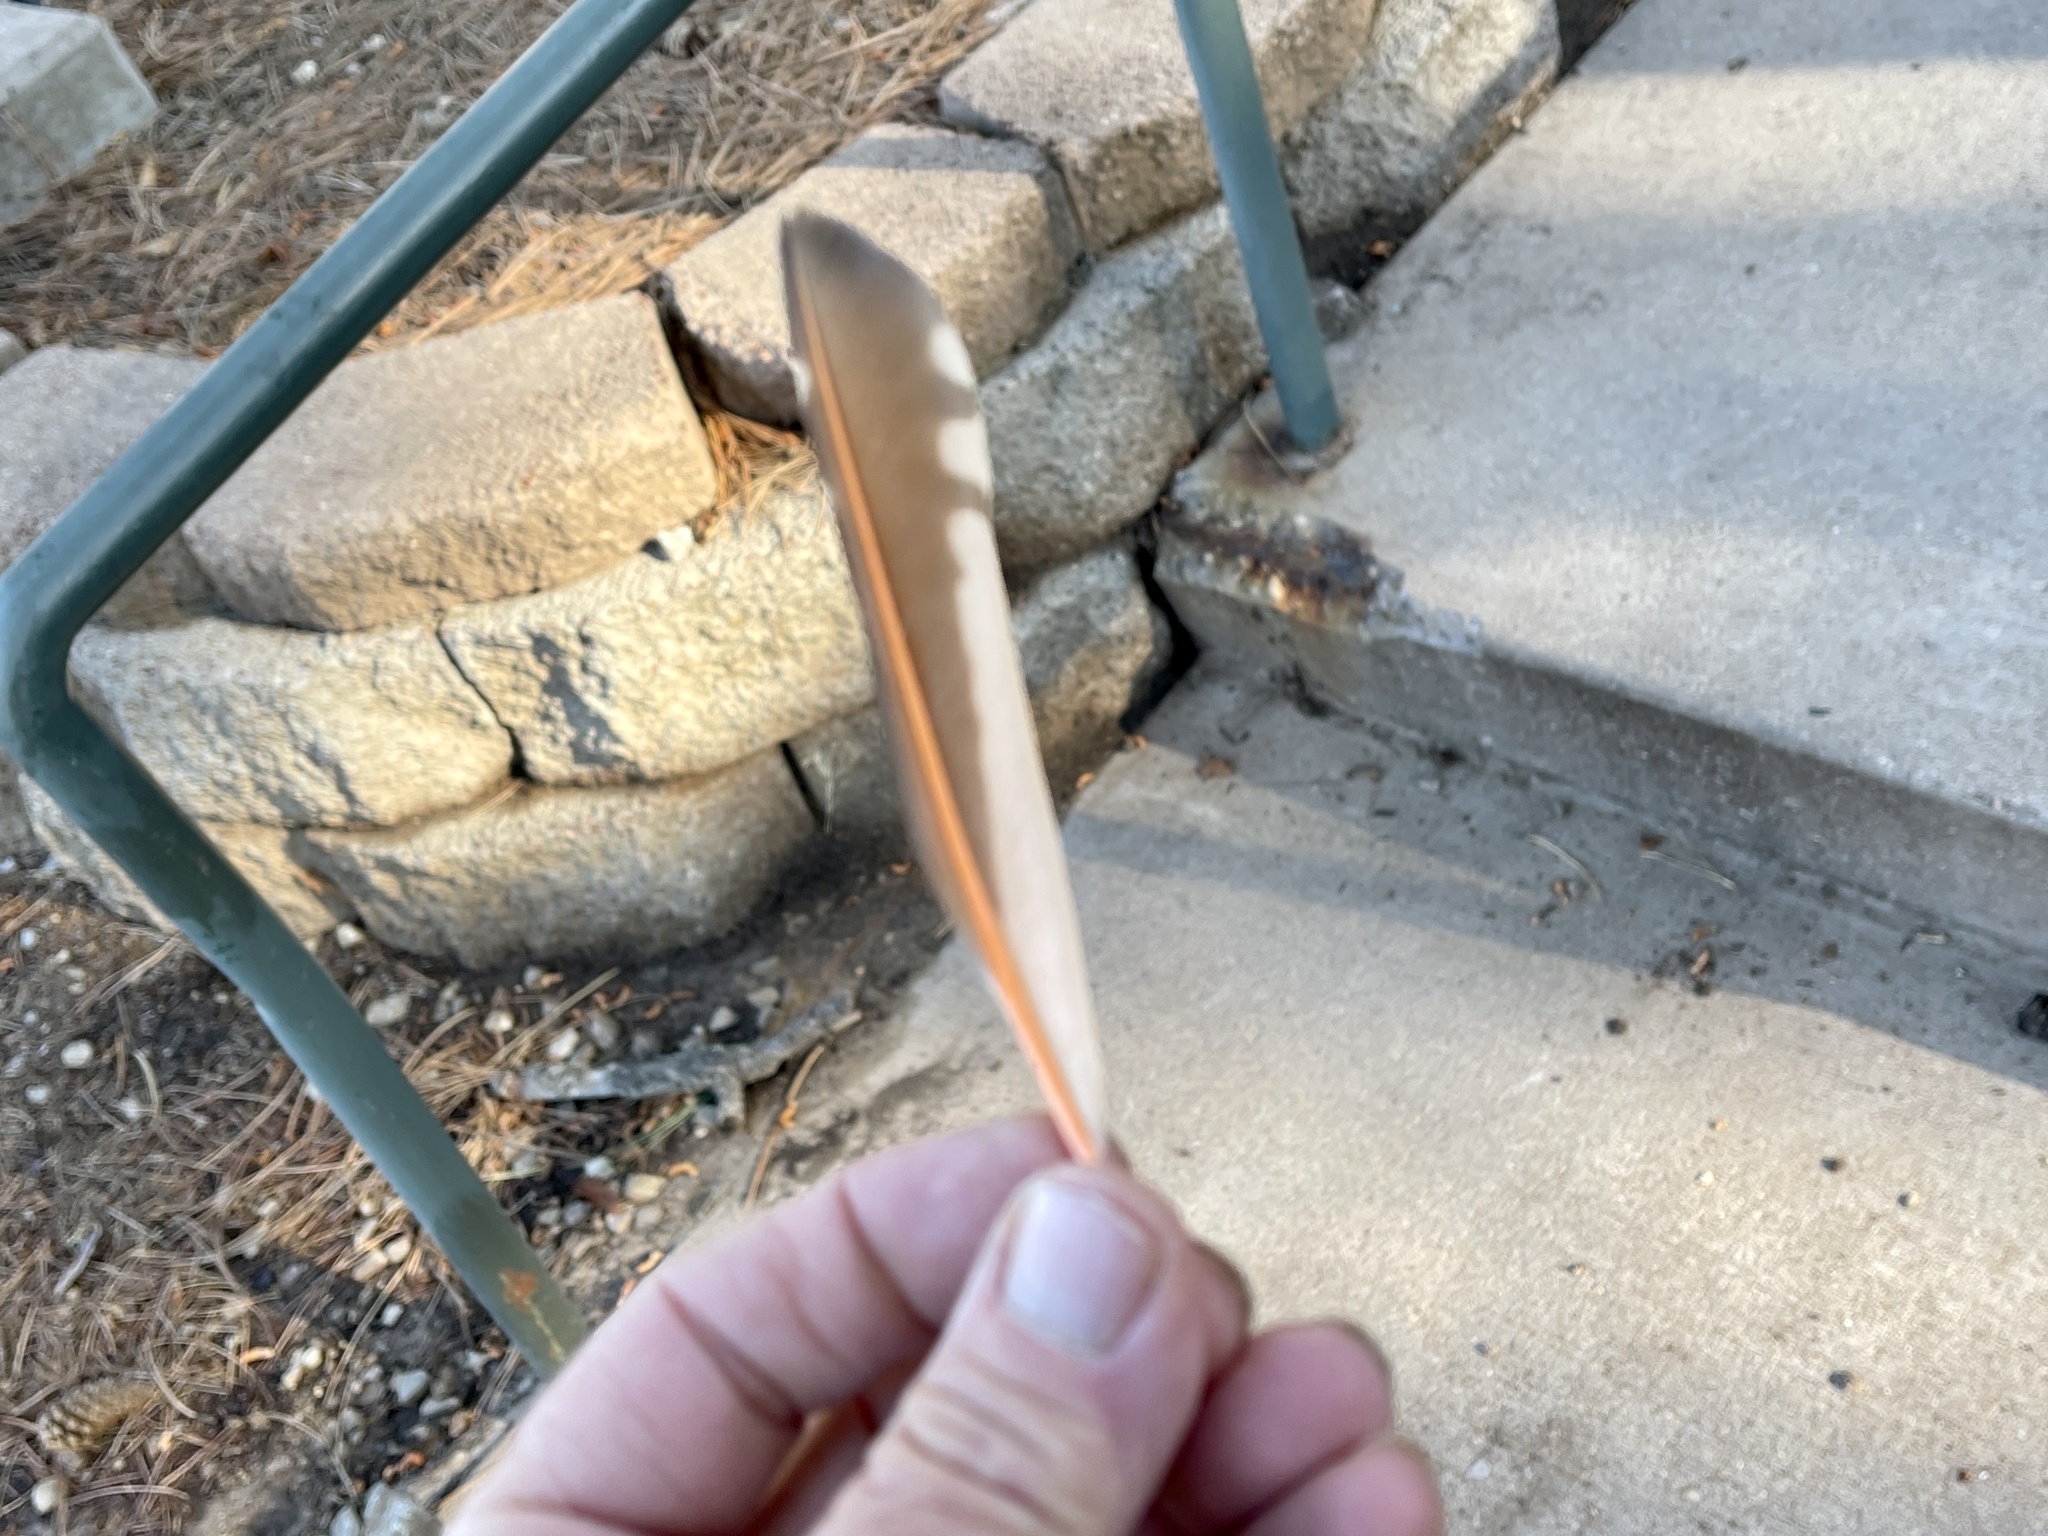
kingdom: Animalia
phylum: Chordata
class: Aves
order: Piciformes
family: Picidae
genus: Colaptes
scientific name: Colaptes auratus
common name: Northern flicker
